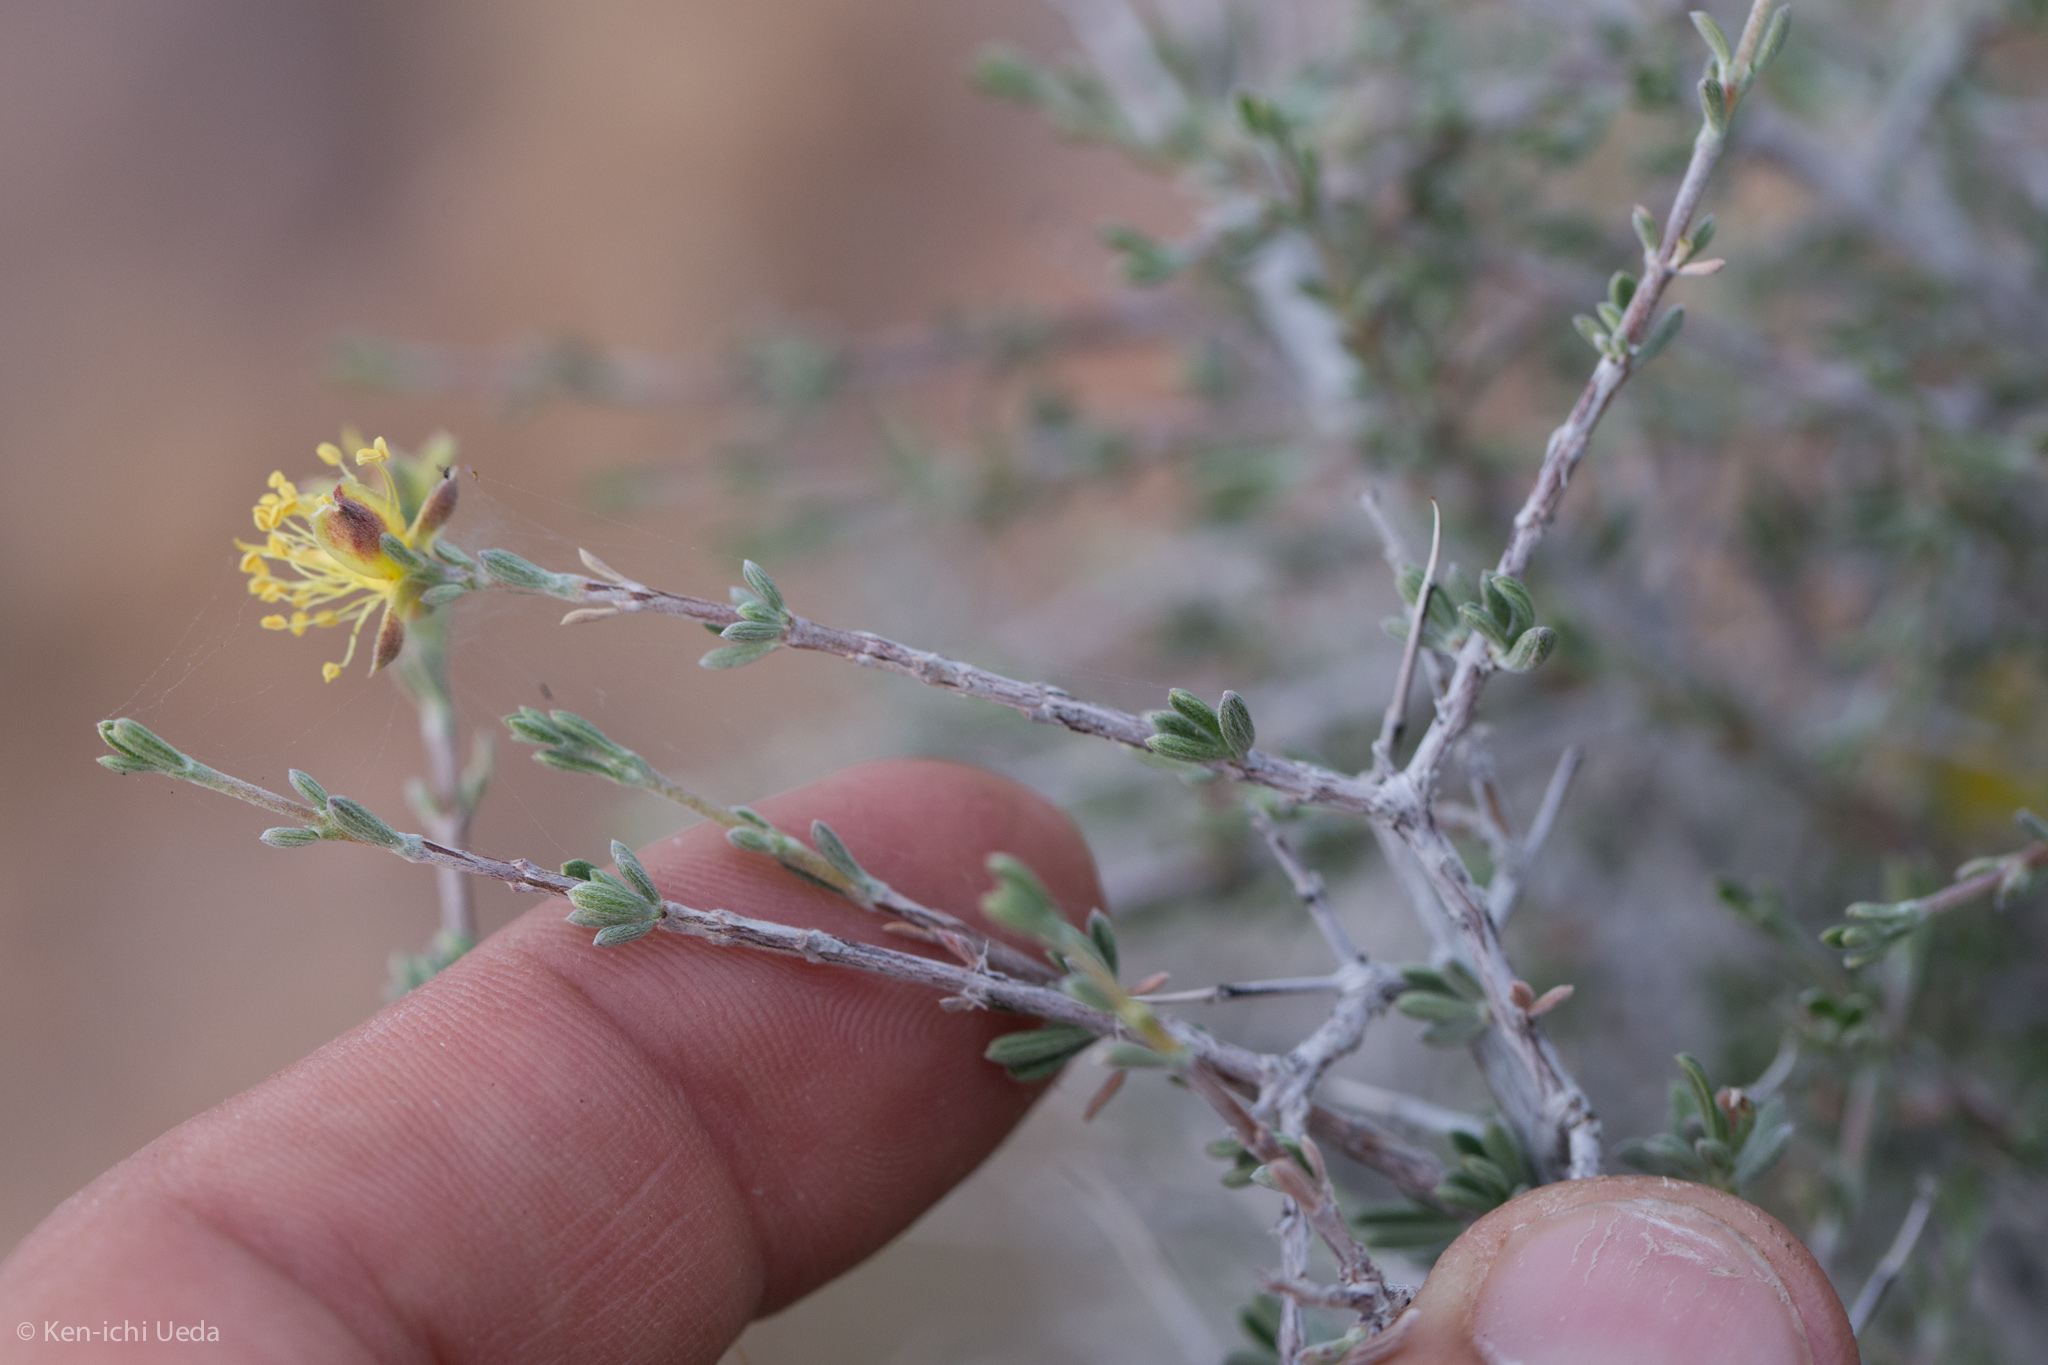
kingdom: Plantae
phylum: Tracheophyta
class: Magnoliopsida
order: Rosales
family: Rosaceae
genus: Coleogyne
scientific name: Coleogyne ramosissima
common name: Blackbrush
